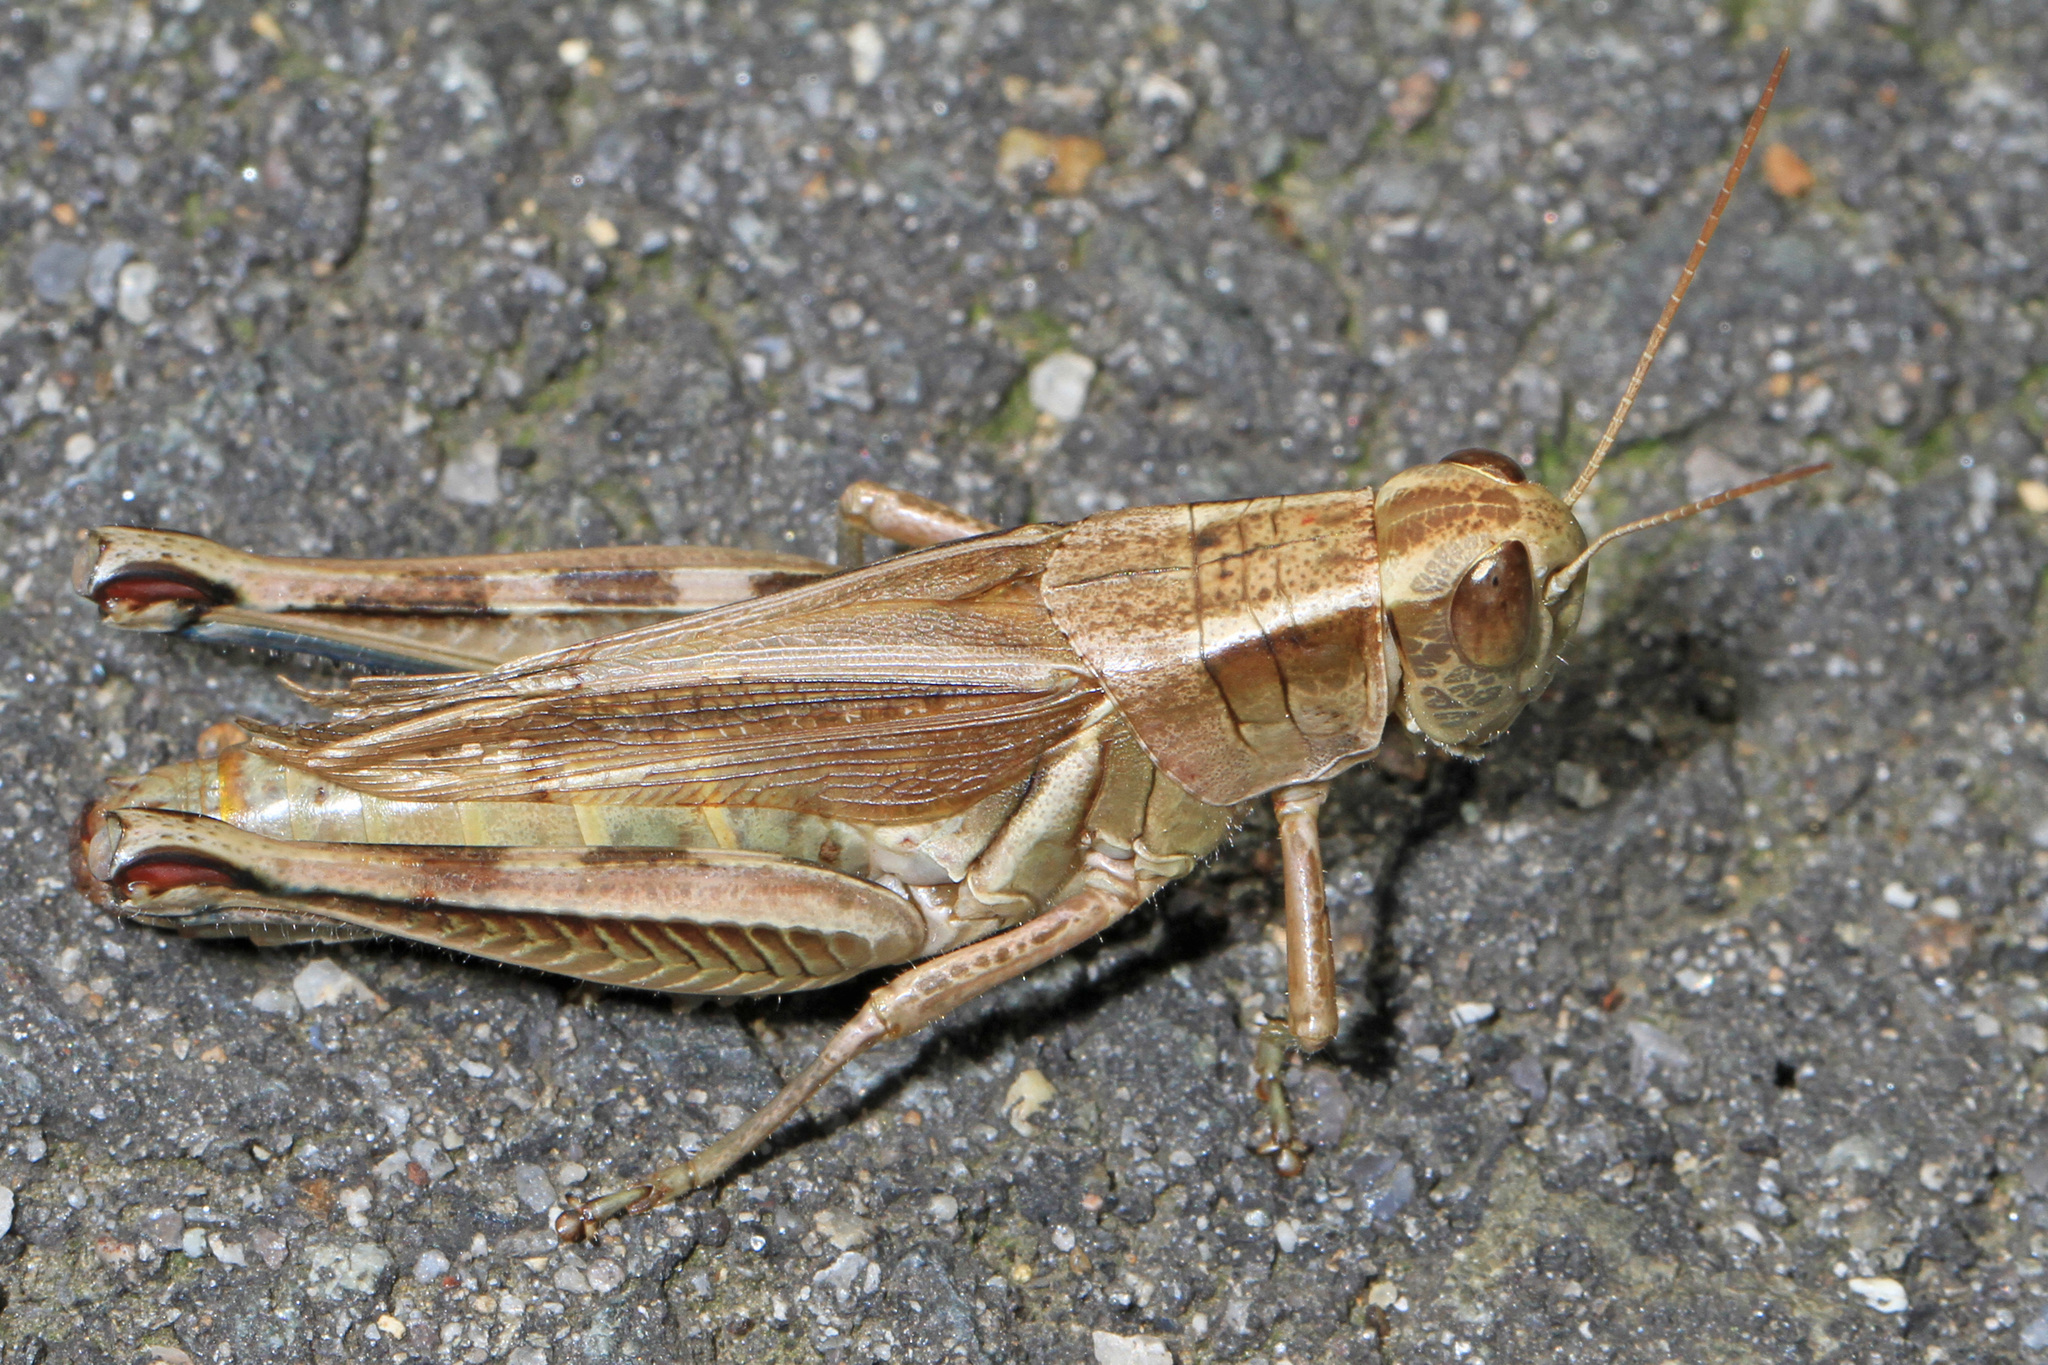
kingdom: Animalia
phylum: Arthropoda
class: Insecta
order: Orthoptera
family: Acrididae
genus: Melanoplus
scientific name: Melanoplus bivittatus
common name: Two-striped grasshopper
